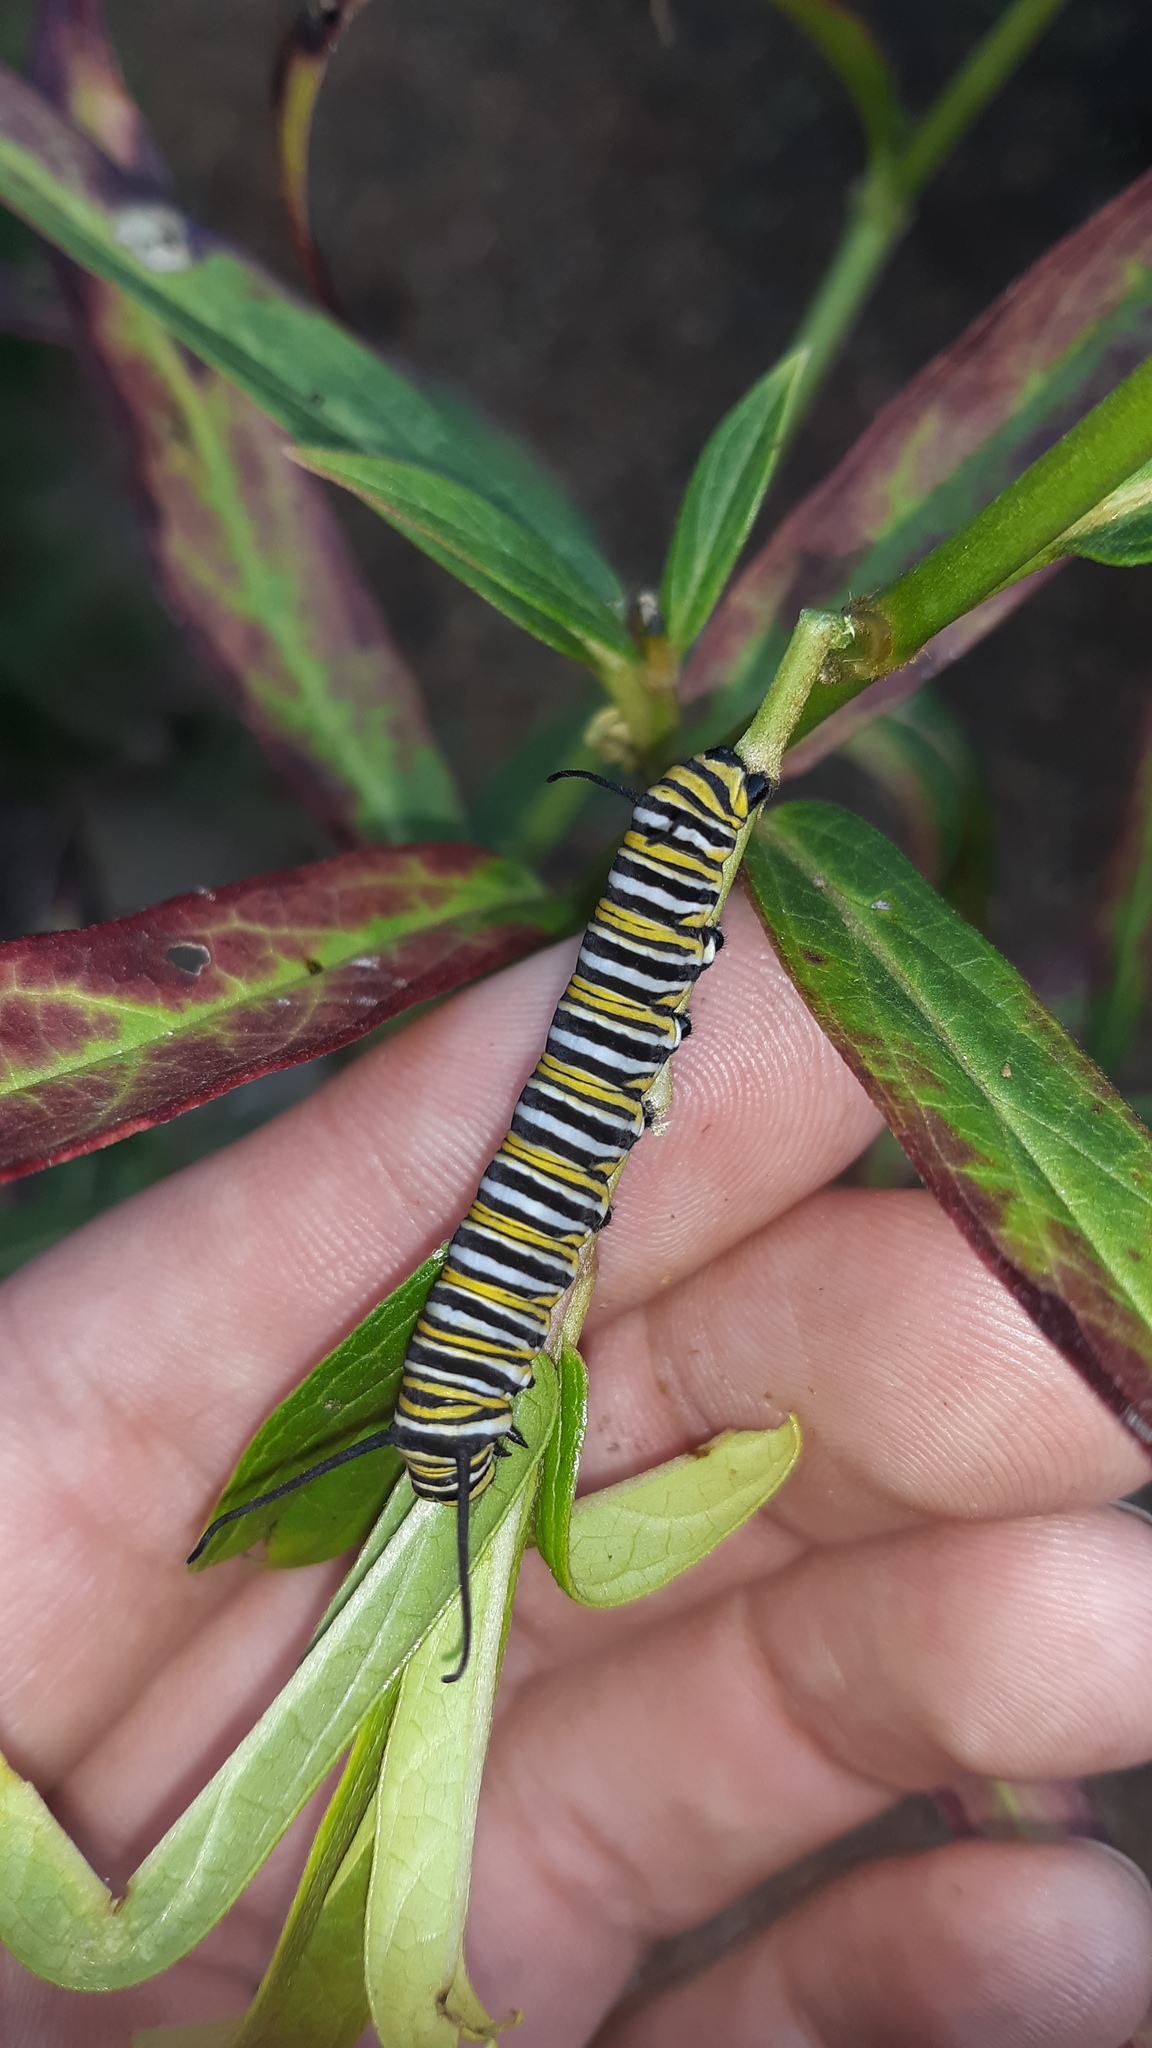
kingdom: Animalia
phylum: Arthropoda
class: Insecta
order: Lepidoptera
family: Nymphalidae
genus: Danaus
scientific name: Danaus plexippus
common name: Monarch
